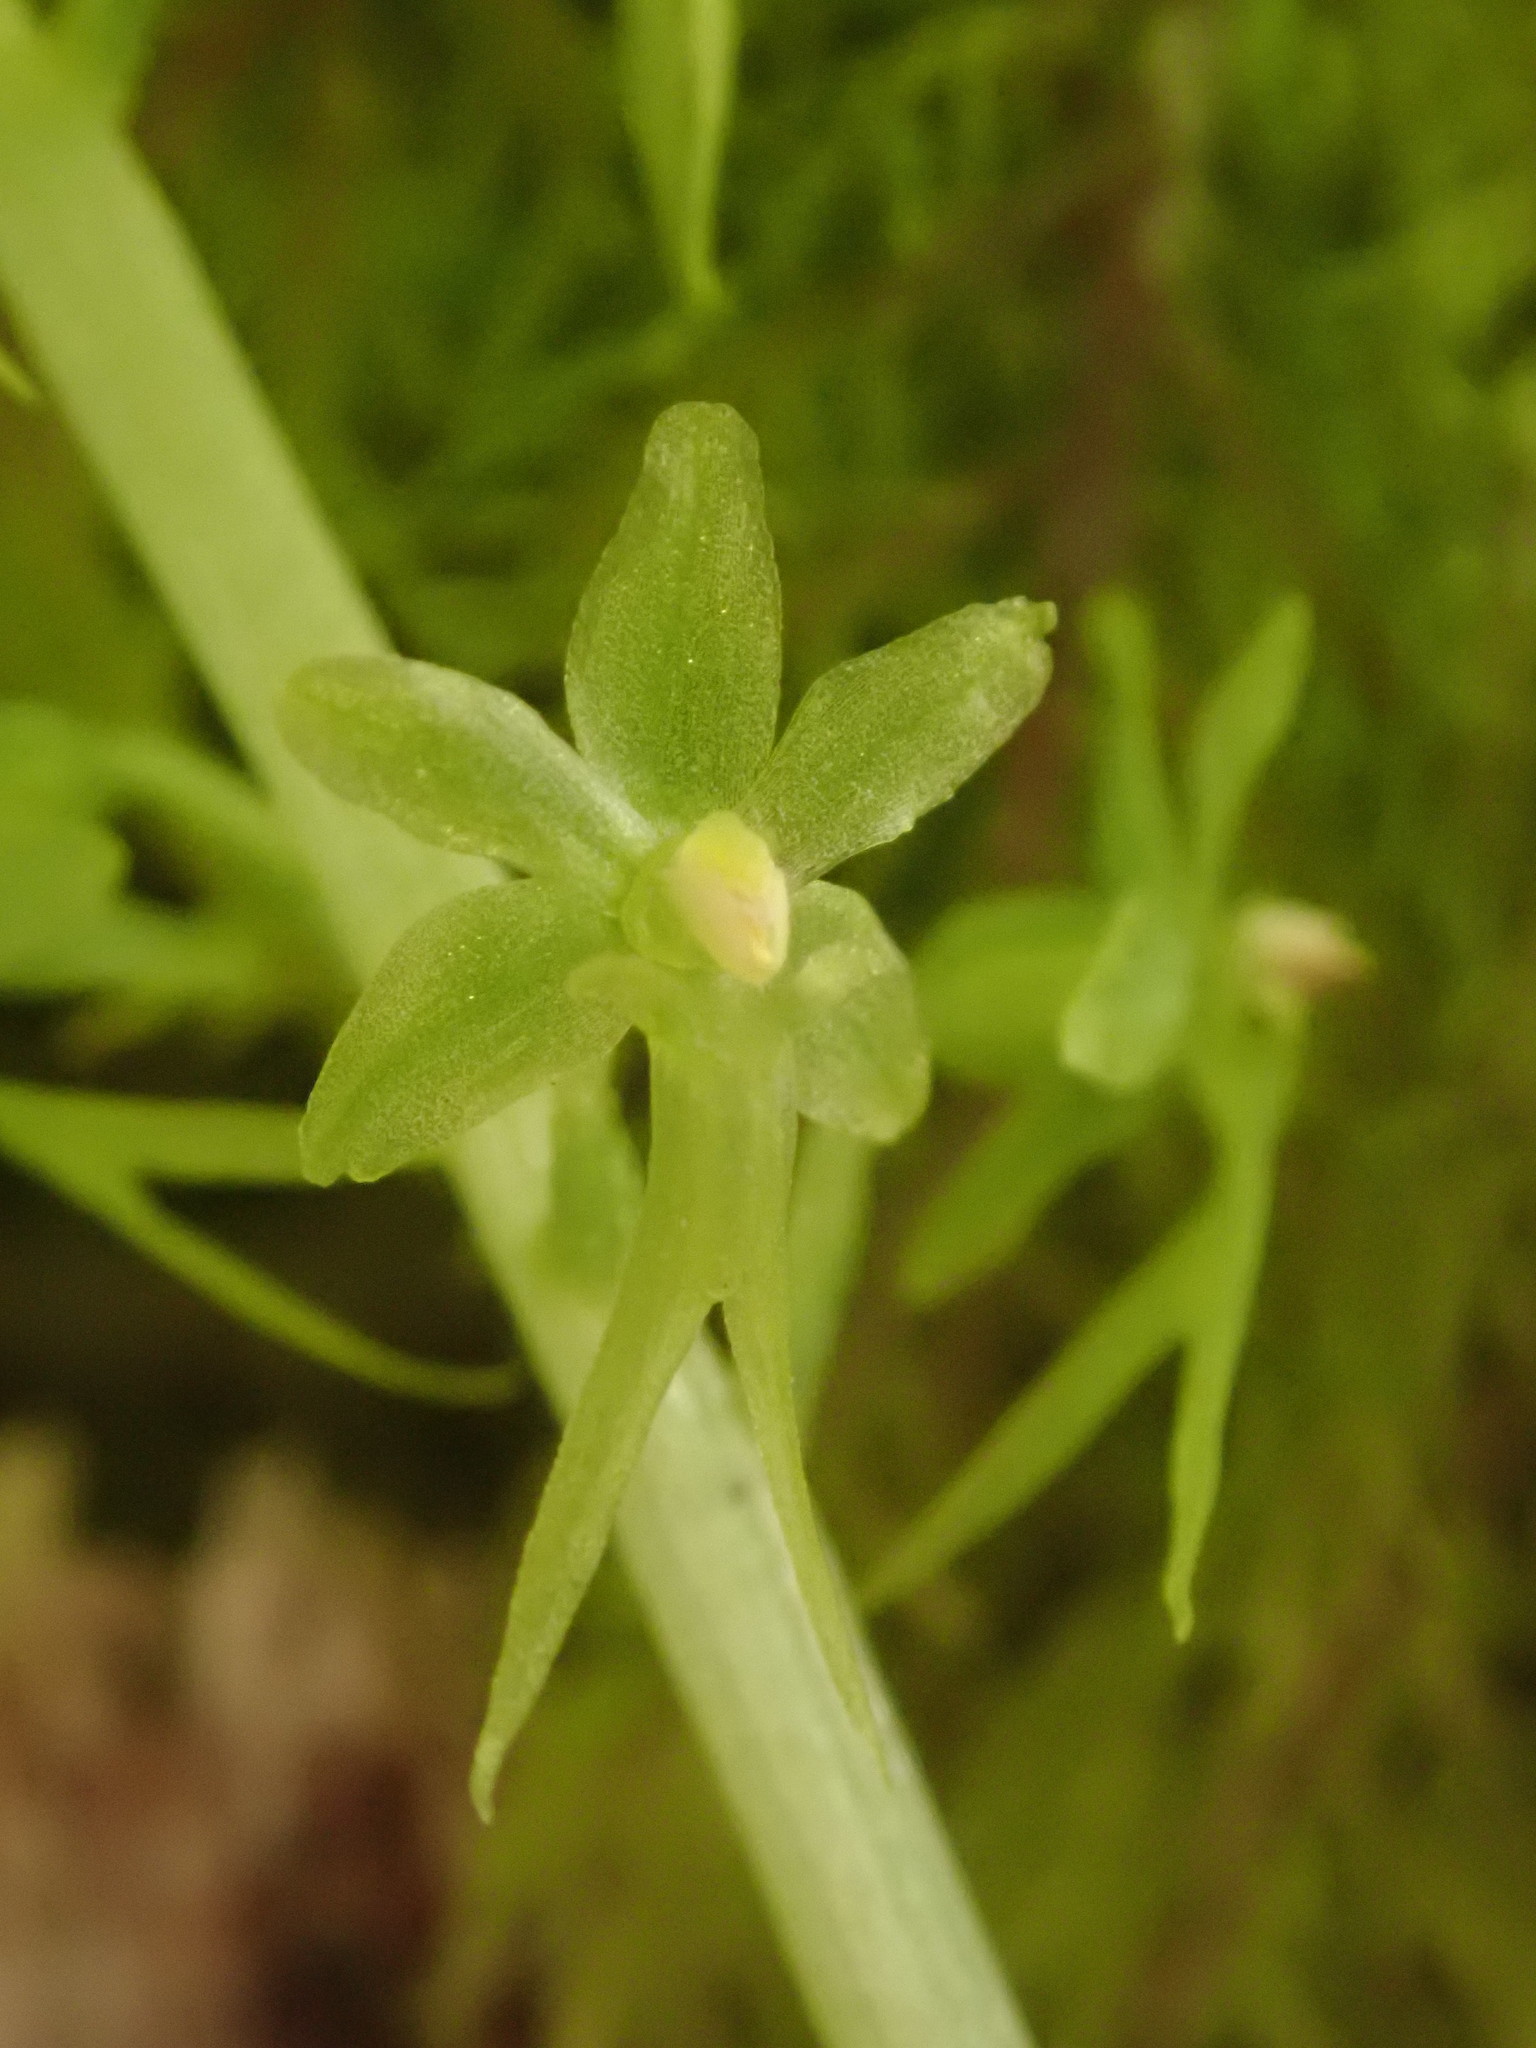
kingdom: Plantae
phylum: Tracheophyta
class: Liliopsida
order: Asparagales
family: Orchidaceae
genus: Neottia
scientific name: Neottia cordata
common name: Lesser twayblade
